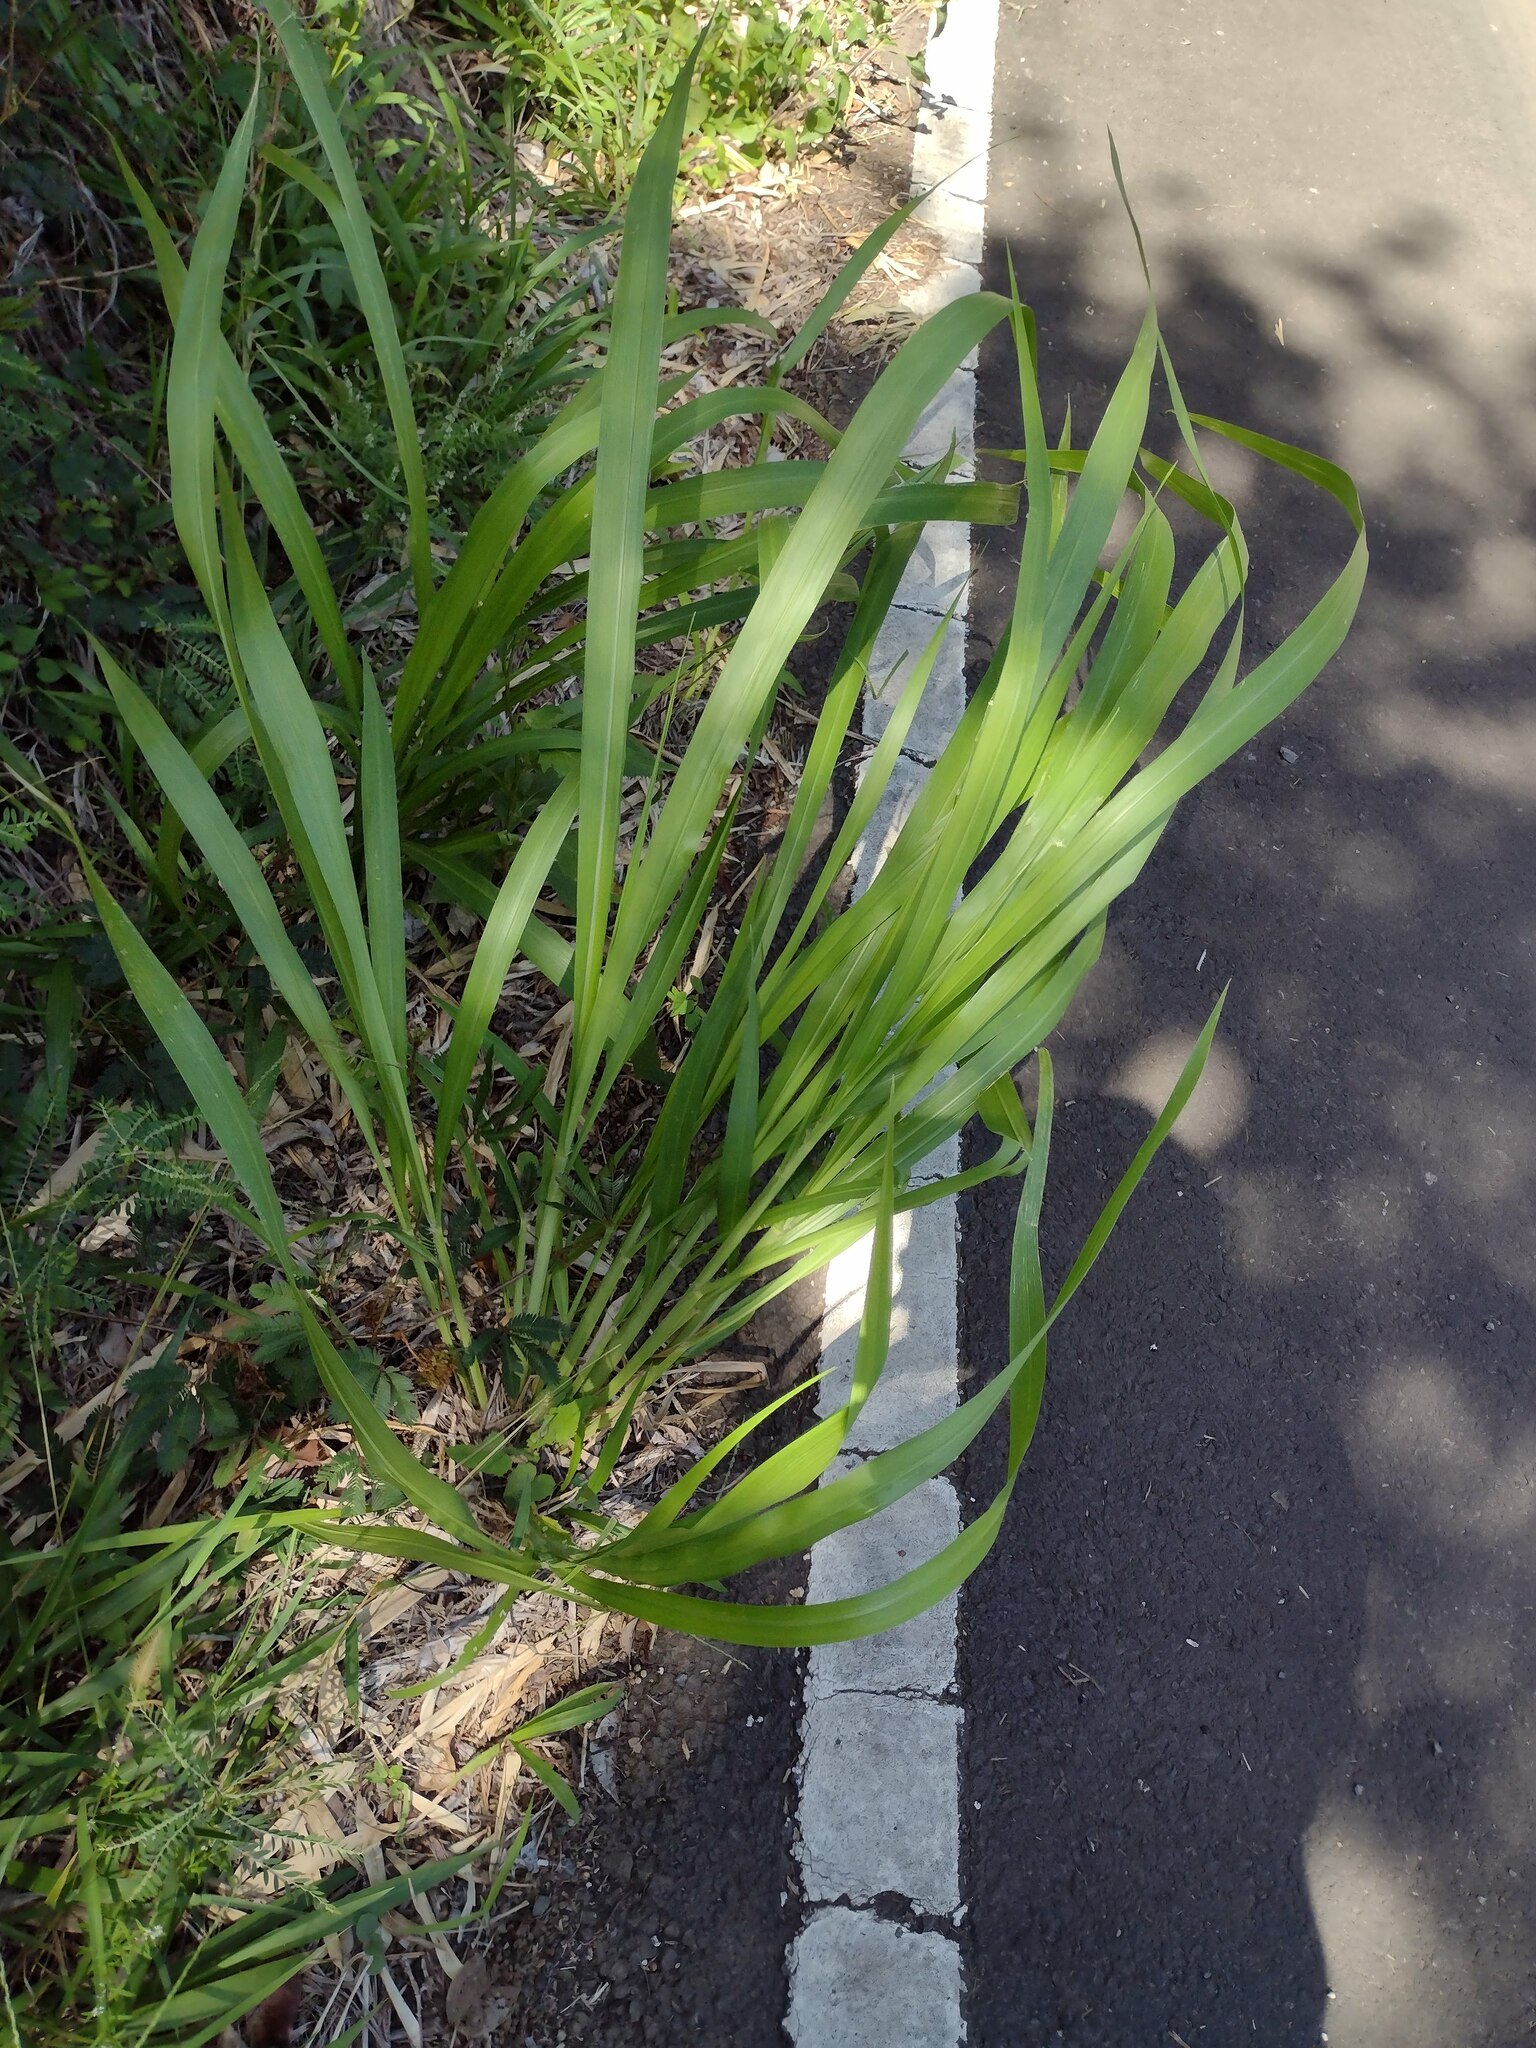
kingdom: Plantae
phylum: Tracheophyta
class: Liliopsida
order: Poales
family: Poaceae
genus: Megathyrsus
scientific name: Megathyrsus maximus
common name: Guineagrass
